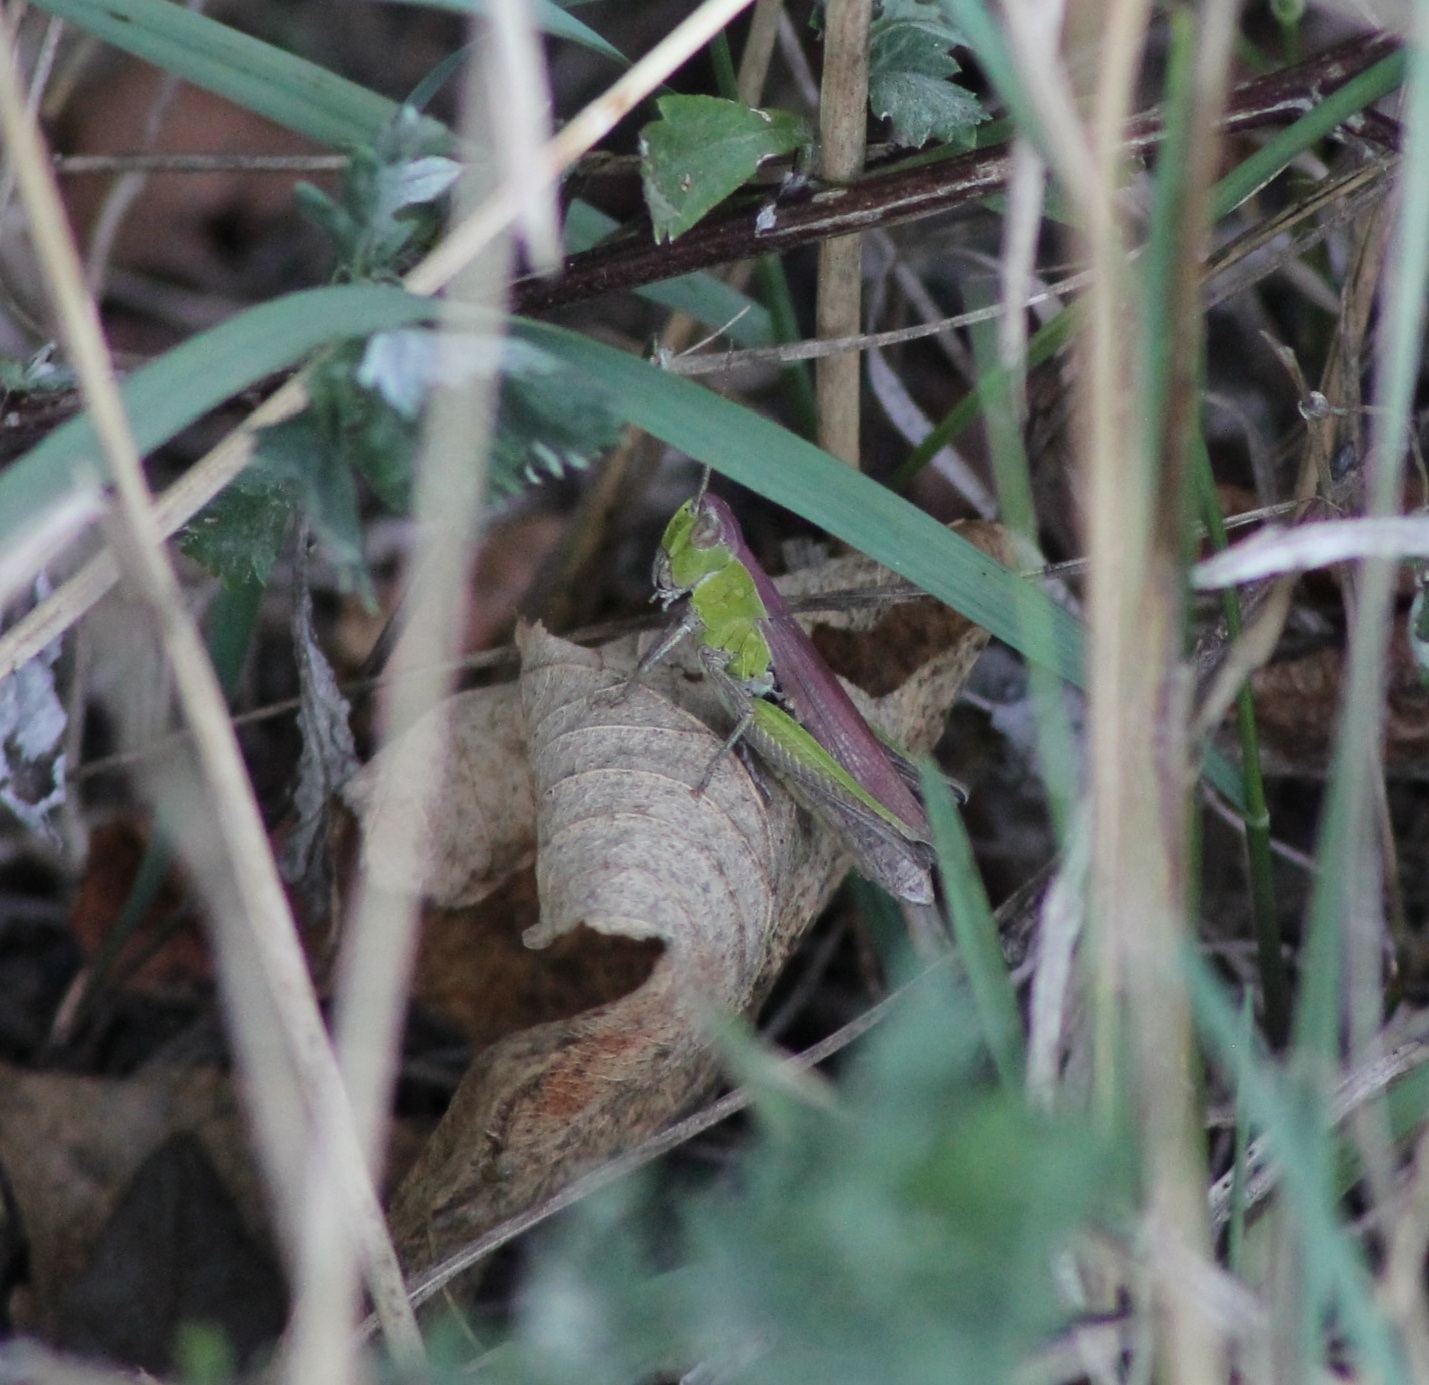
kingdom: Animalia
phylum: Arthropoda
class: Insecta
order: Orthoptera
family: Acrididae
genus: Chorthippus
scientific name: Chorthippus dorsatus
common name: Steppe grasshopper
